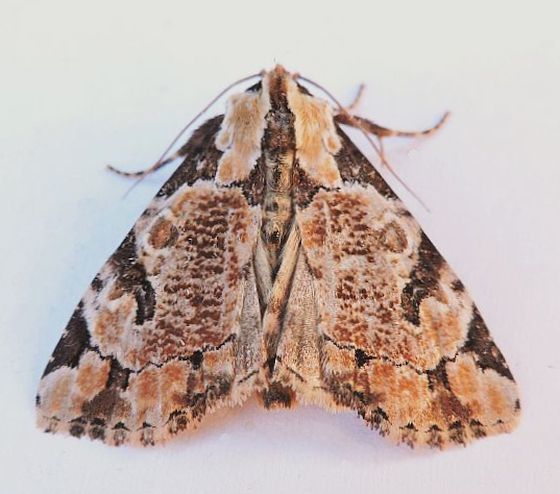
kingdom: Animalia
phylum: Arthropoda
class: Insecta
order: Lepidoptera
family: Noctuidae
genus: Stibaera
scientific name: Stibaera thyatiroides
